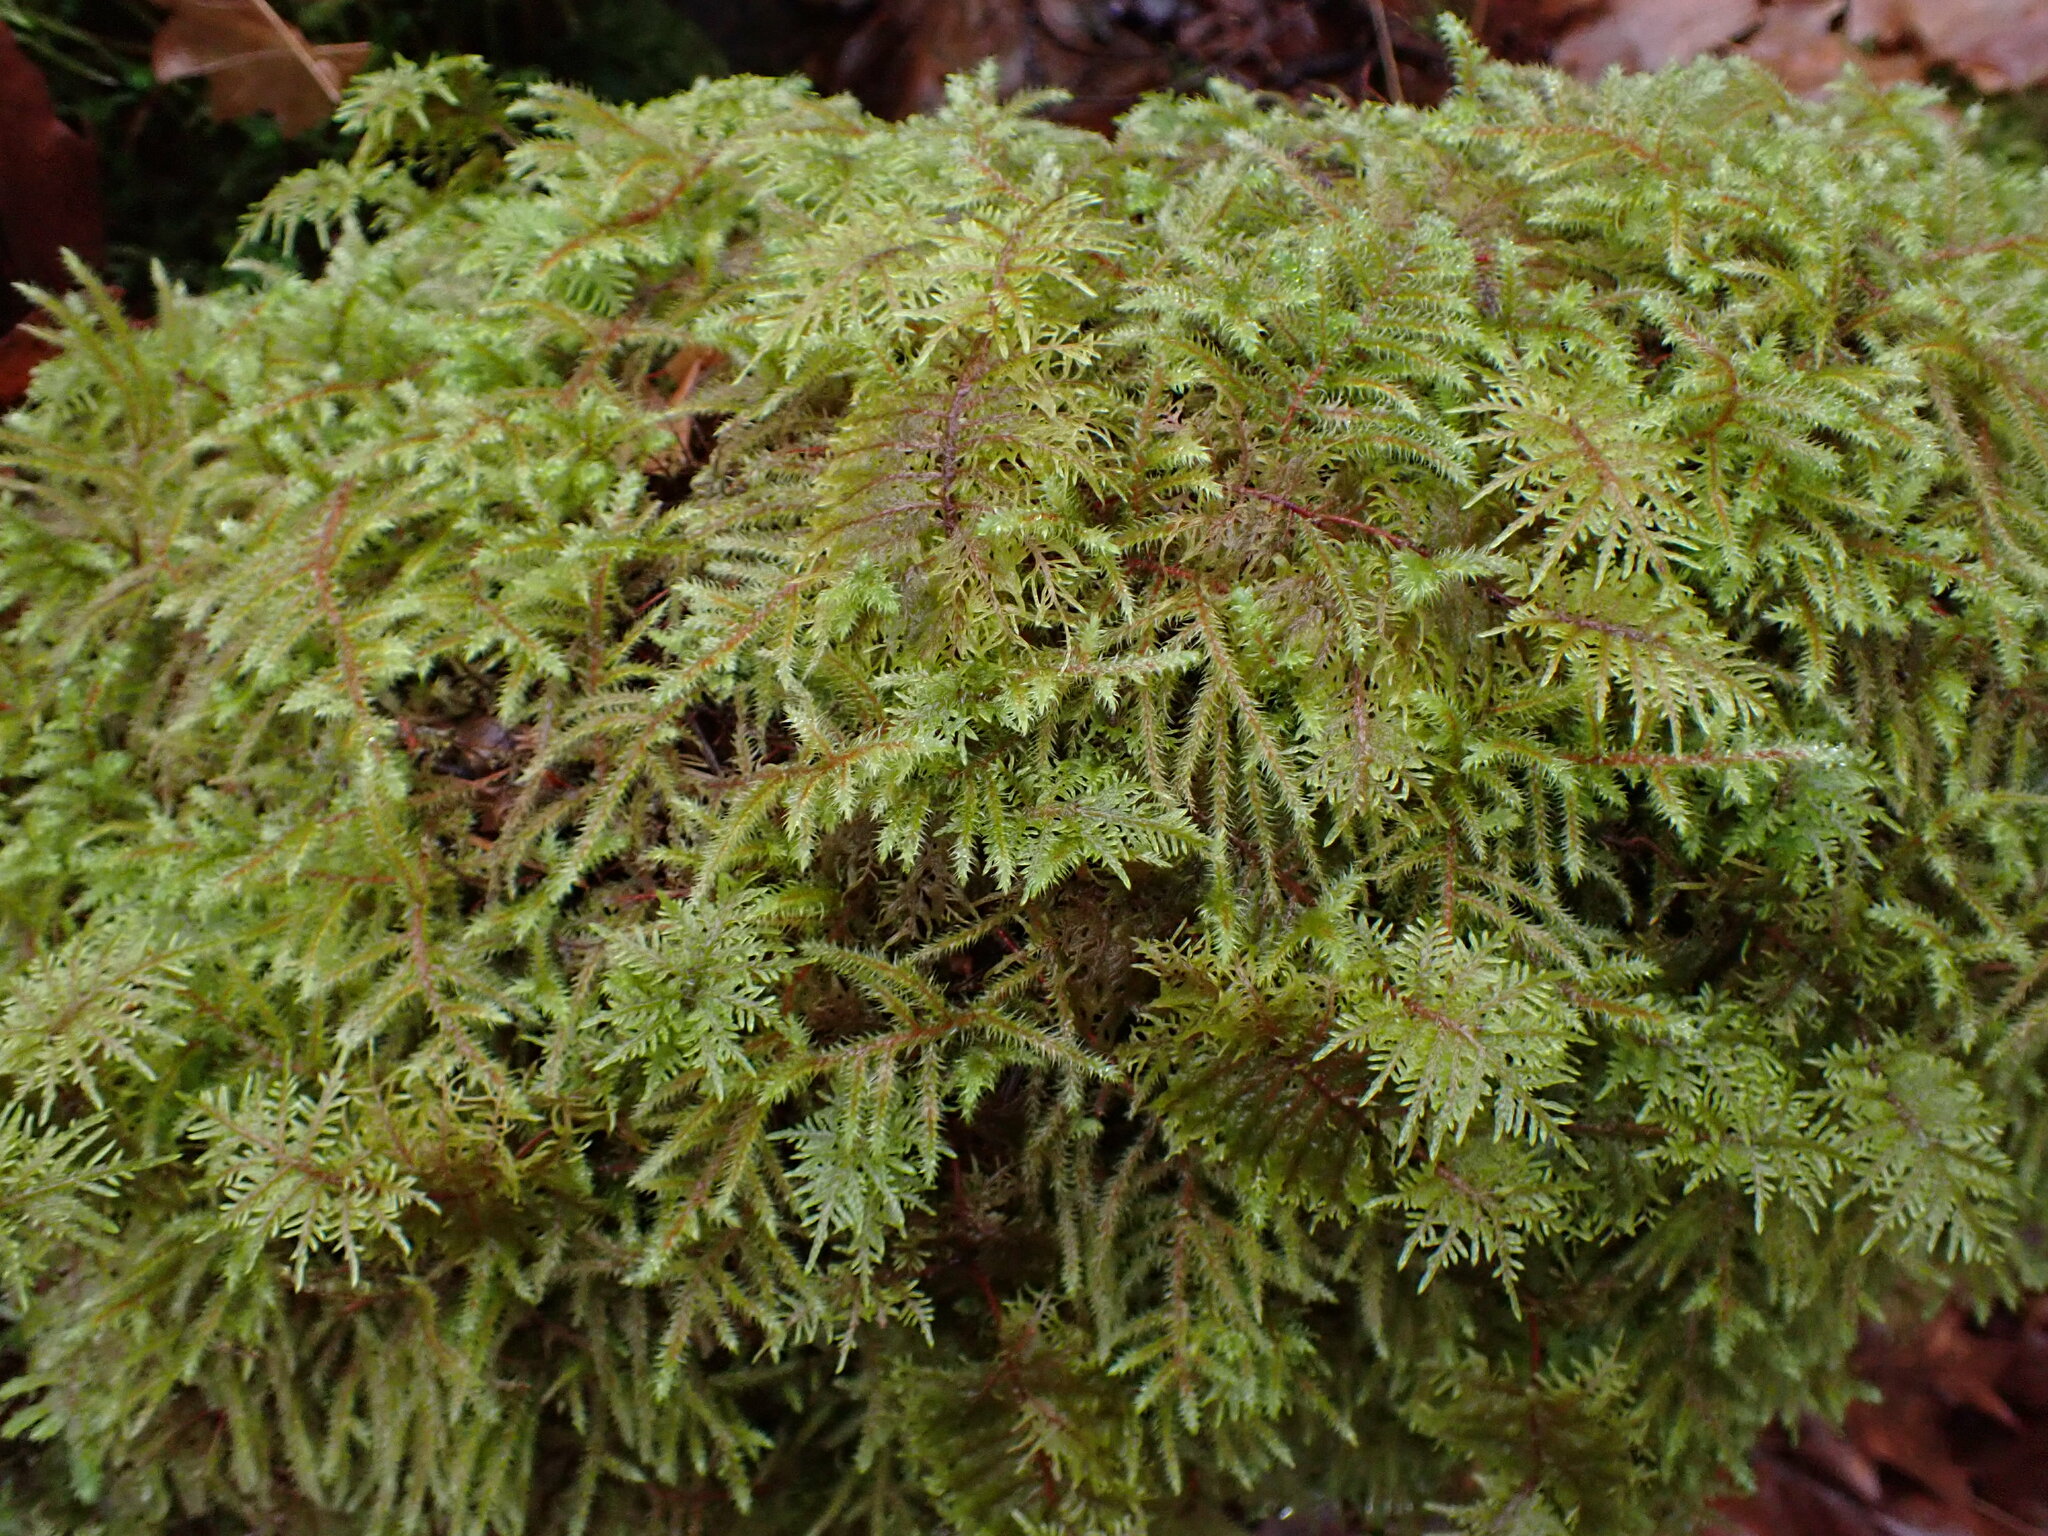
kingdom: Plantae
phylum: Bryophyta
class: Bryopsida
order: Hypnales
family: Hylocomiaceae
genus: Hylocomium
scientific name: Hylocomium splendens
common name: Stairstep moss
